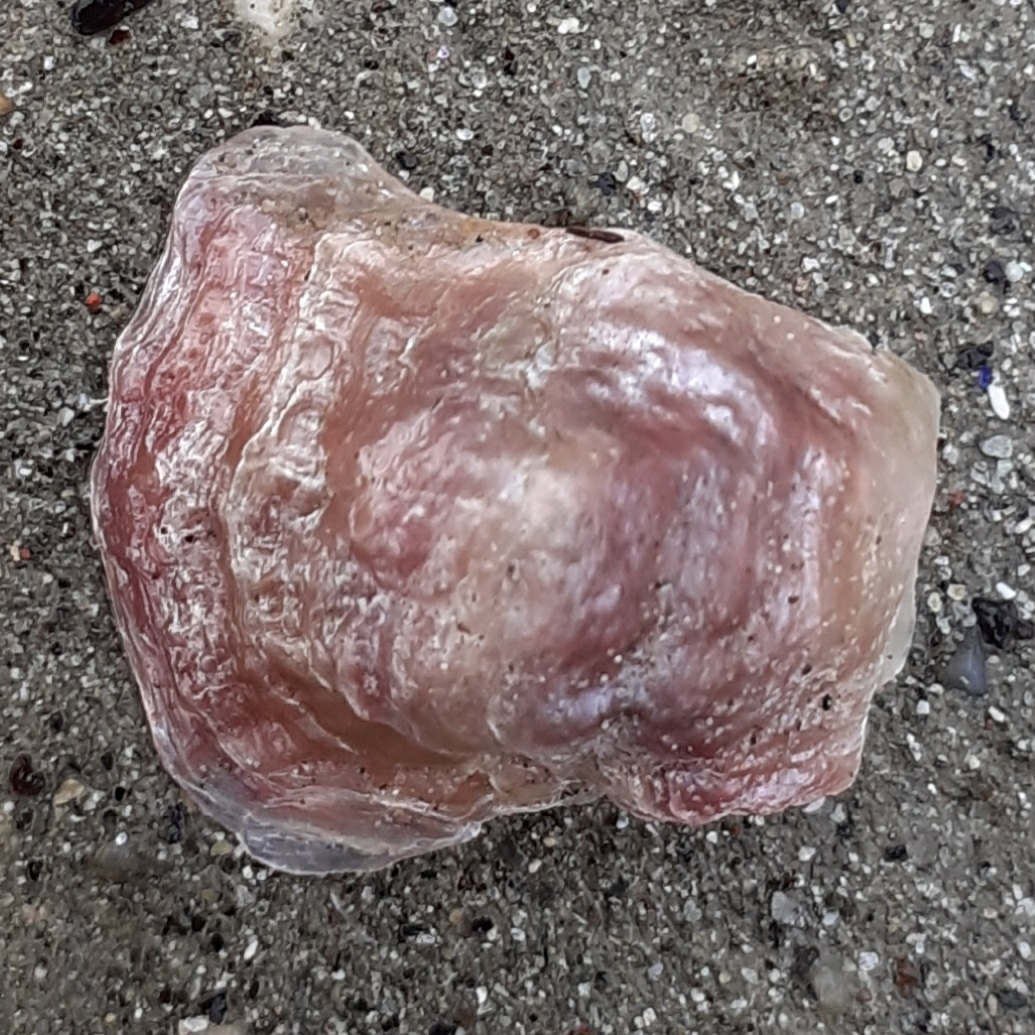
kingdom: Animalia
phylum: Mollusca
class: Bivalvia
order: Pectinida
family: Anomiidae
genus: Anomia
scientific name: Anomia ephippium
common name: Saddle oyster
